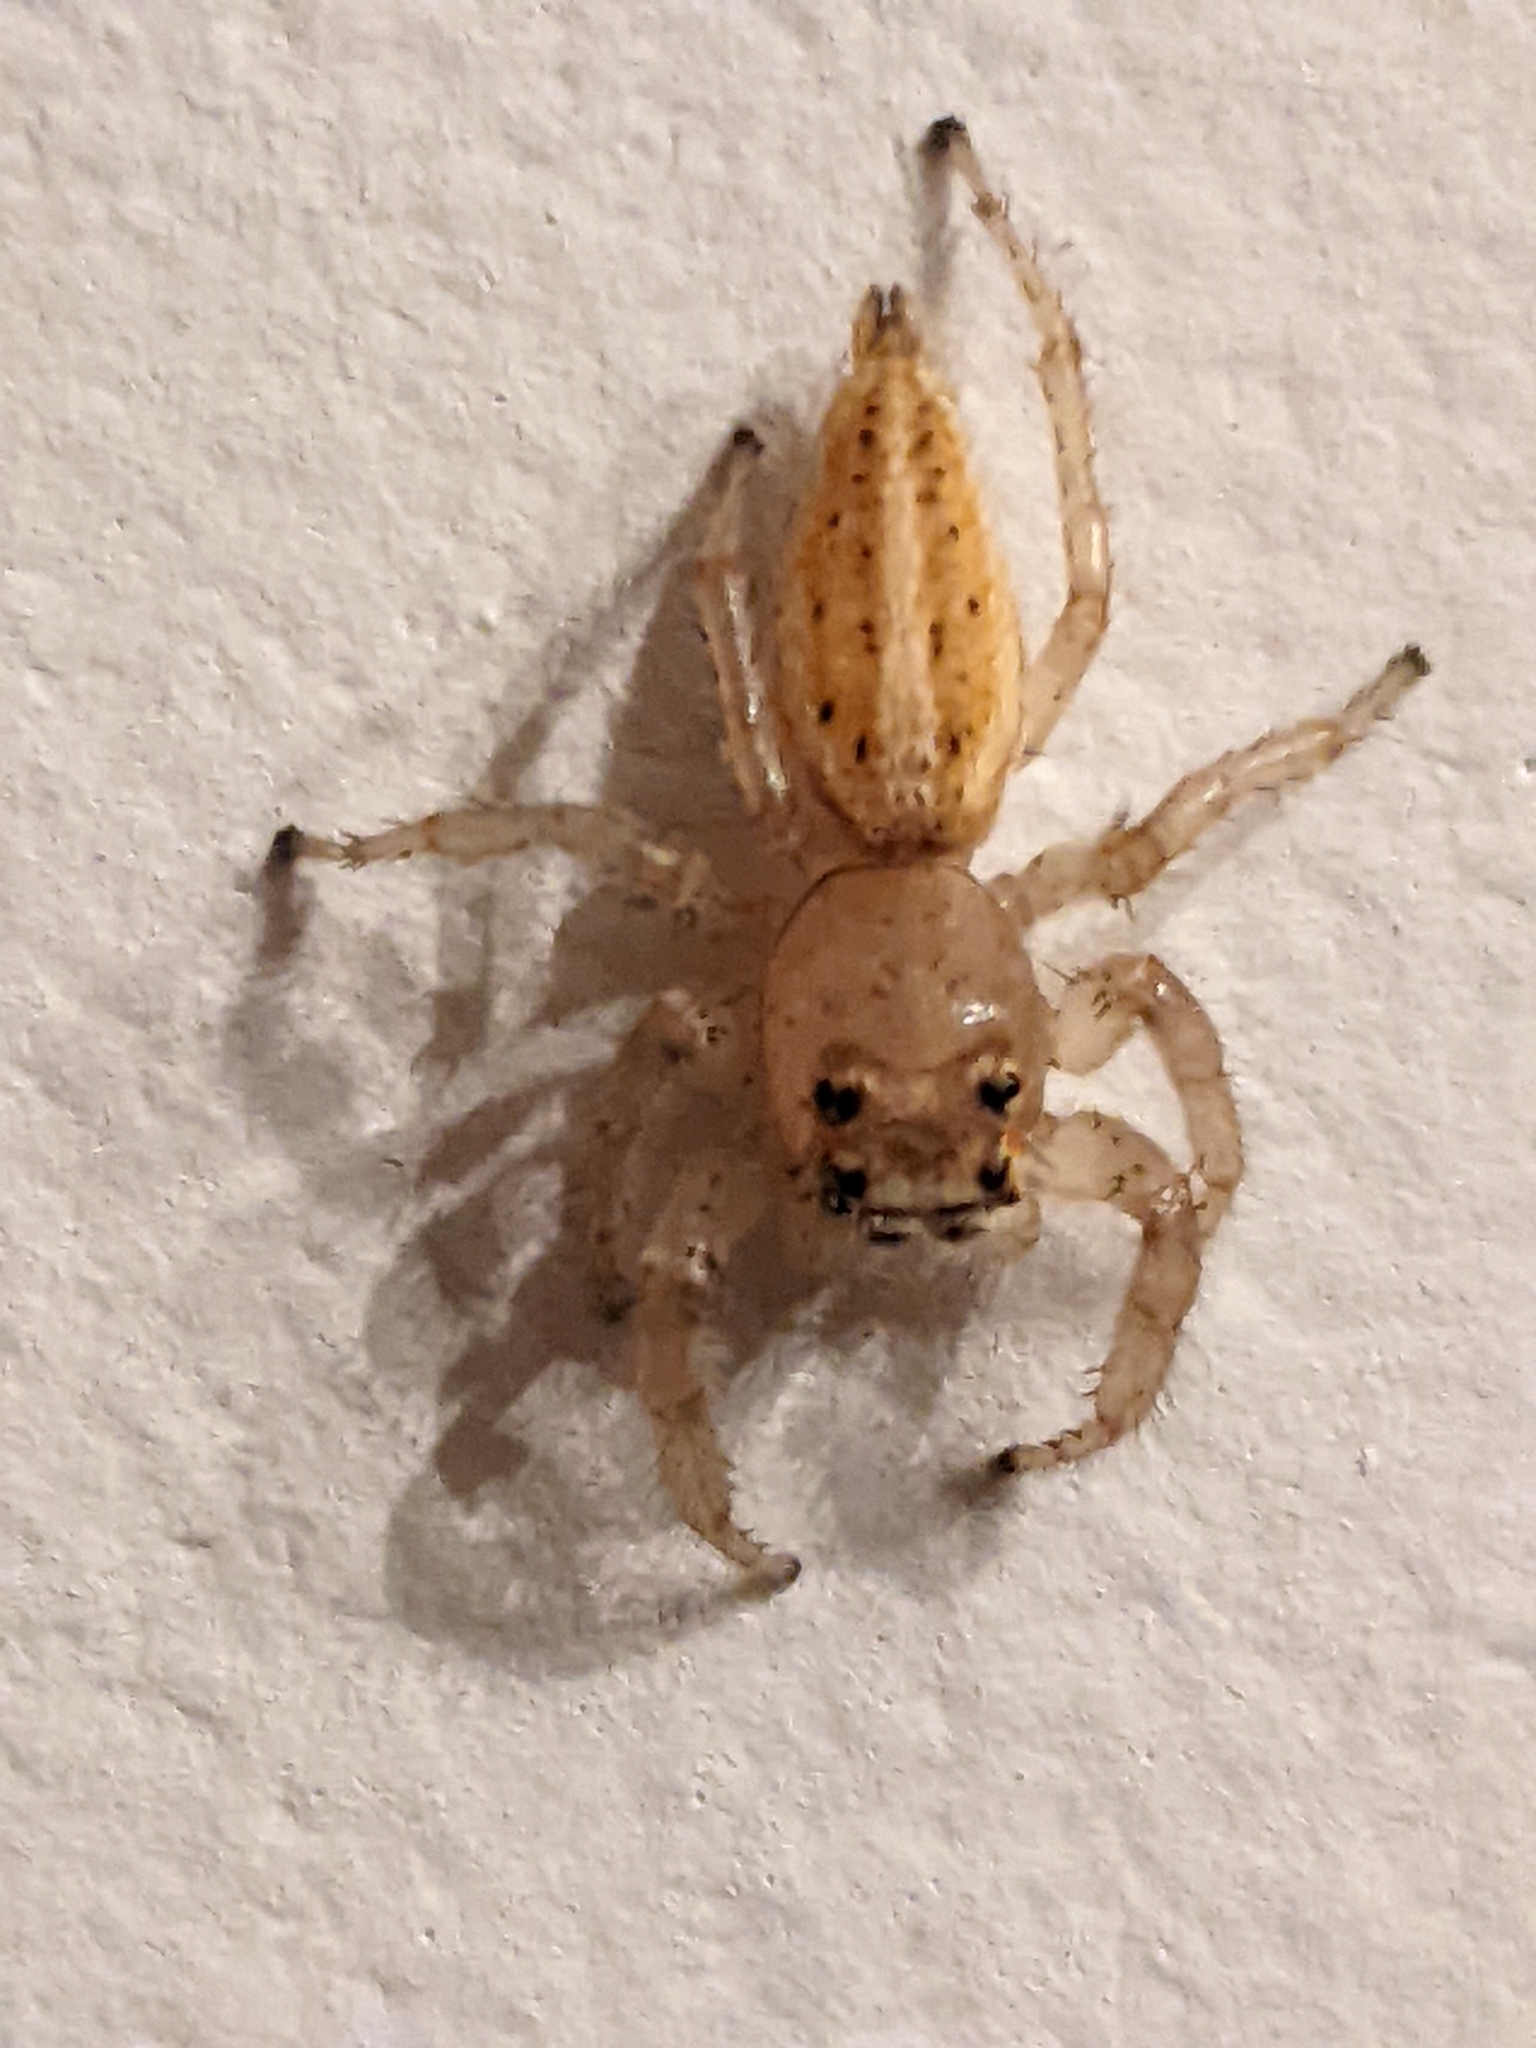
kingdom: Animalia
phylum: Arthropoda
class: Arachnida
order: Araneae
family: Salticidae
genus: Colonus
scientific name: Colonus sylvanus
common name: Jumping spiders
